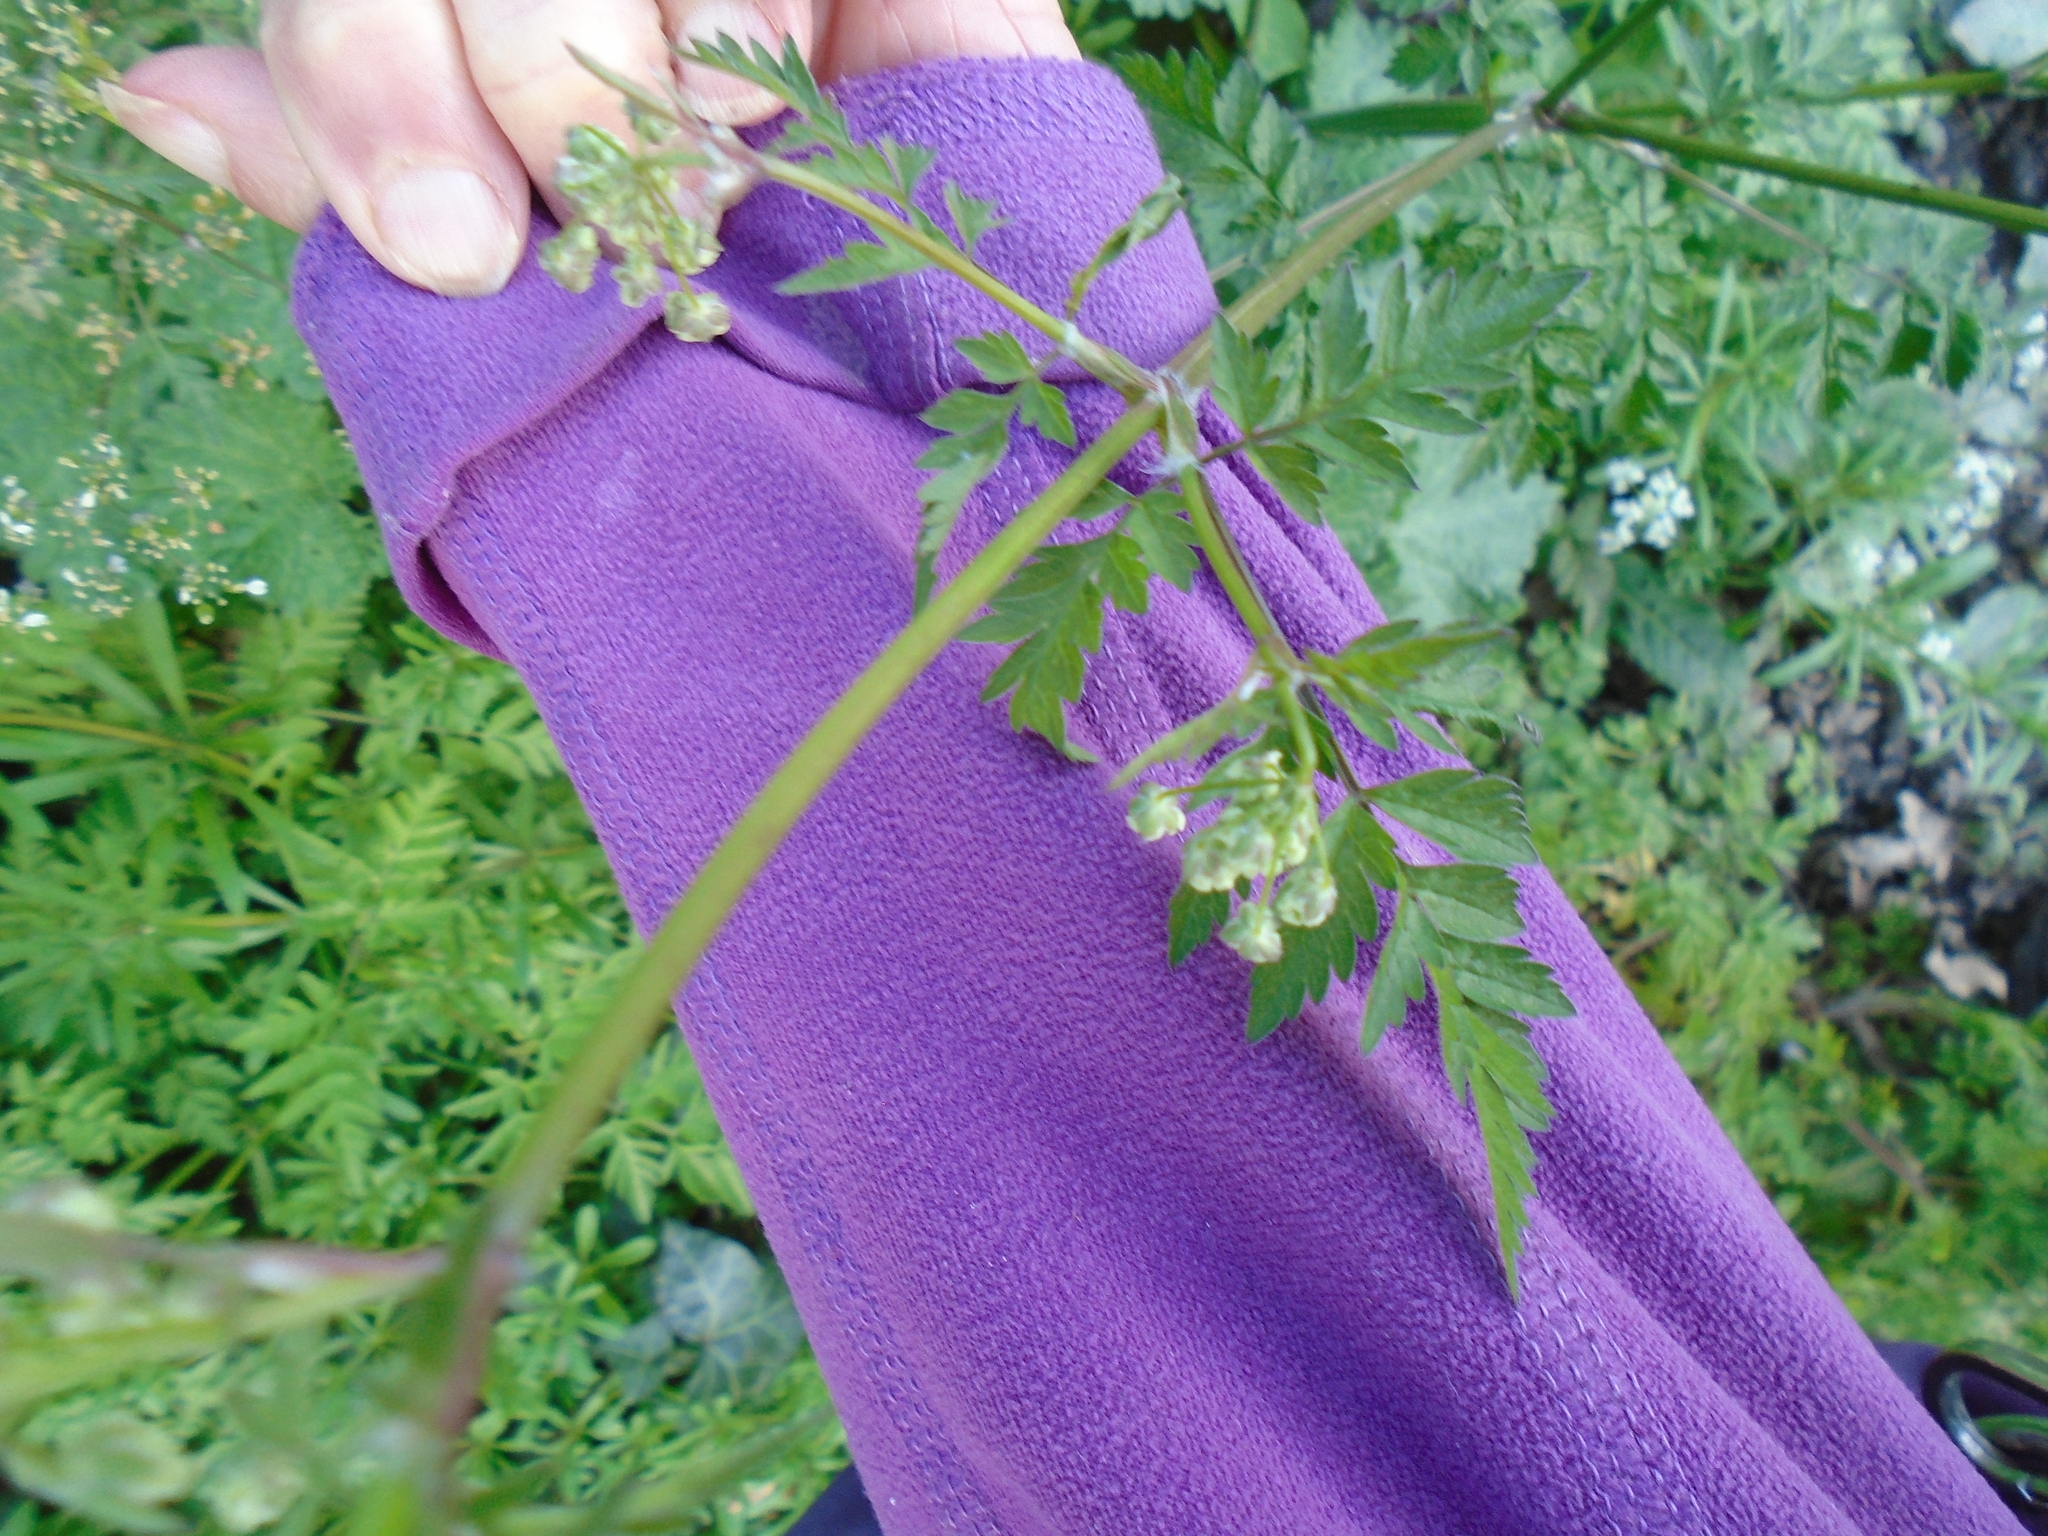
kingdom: Plantae
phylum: Tracheophyta
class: Magnoliopsida
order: Apiales
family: Apiaceae
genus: Anthriscus
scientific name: Anthriscus sylvestris
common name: Cow parsley
